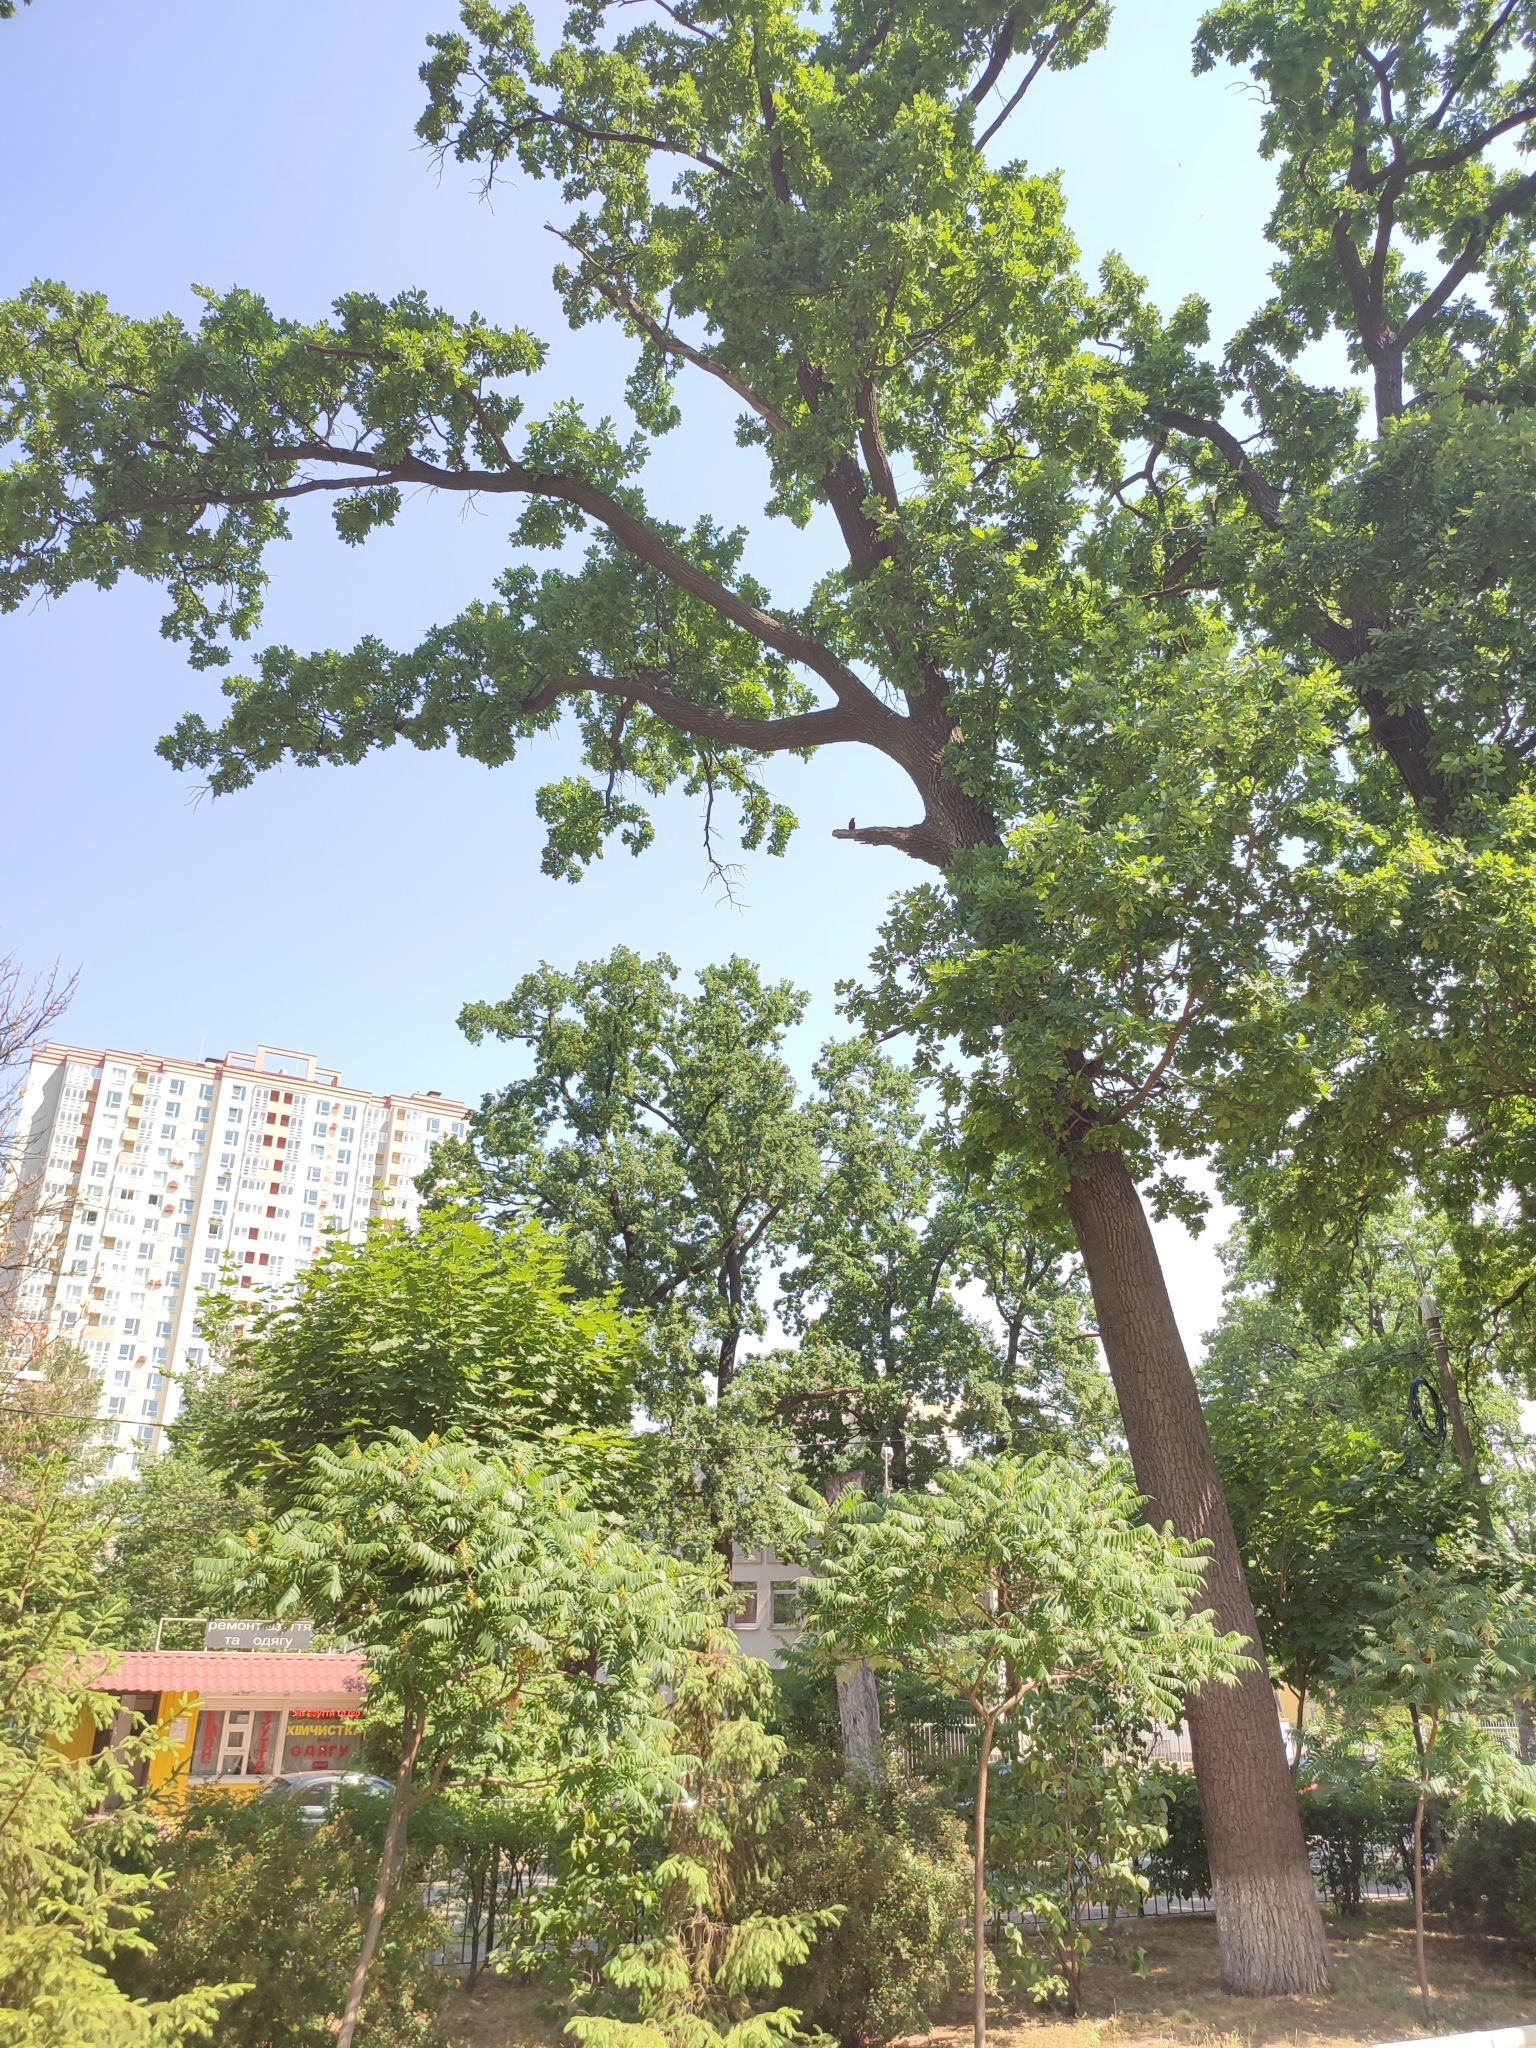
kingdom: Plantae
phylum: Tracheophyta
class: Magnoliopsida
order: Fagales
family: Fagaceae
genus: Quercus
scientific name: Quercus robur
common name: Pedunculate oak
